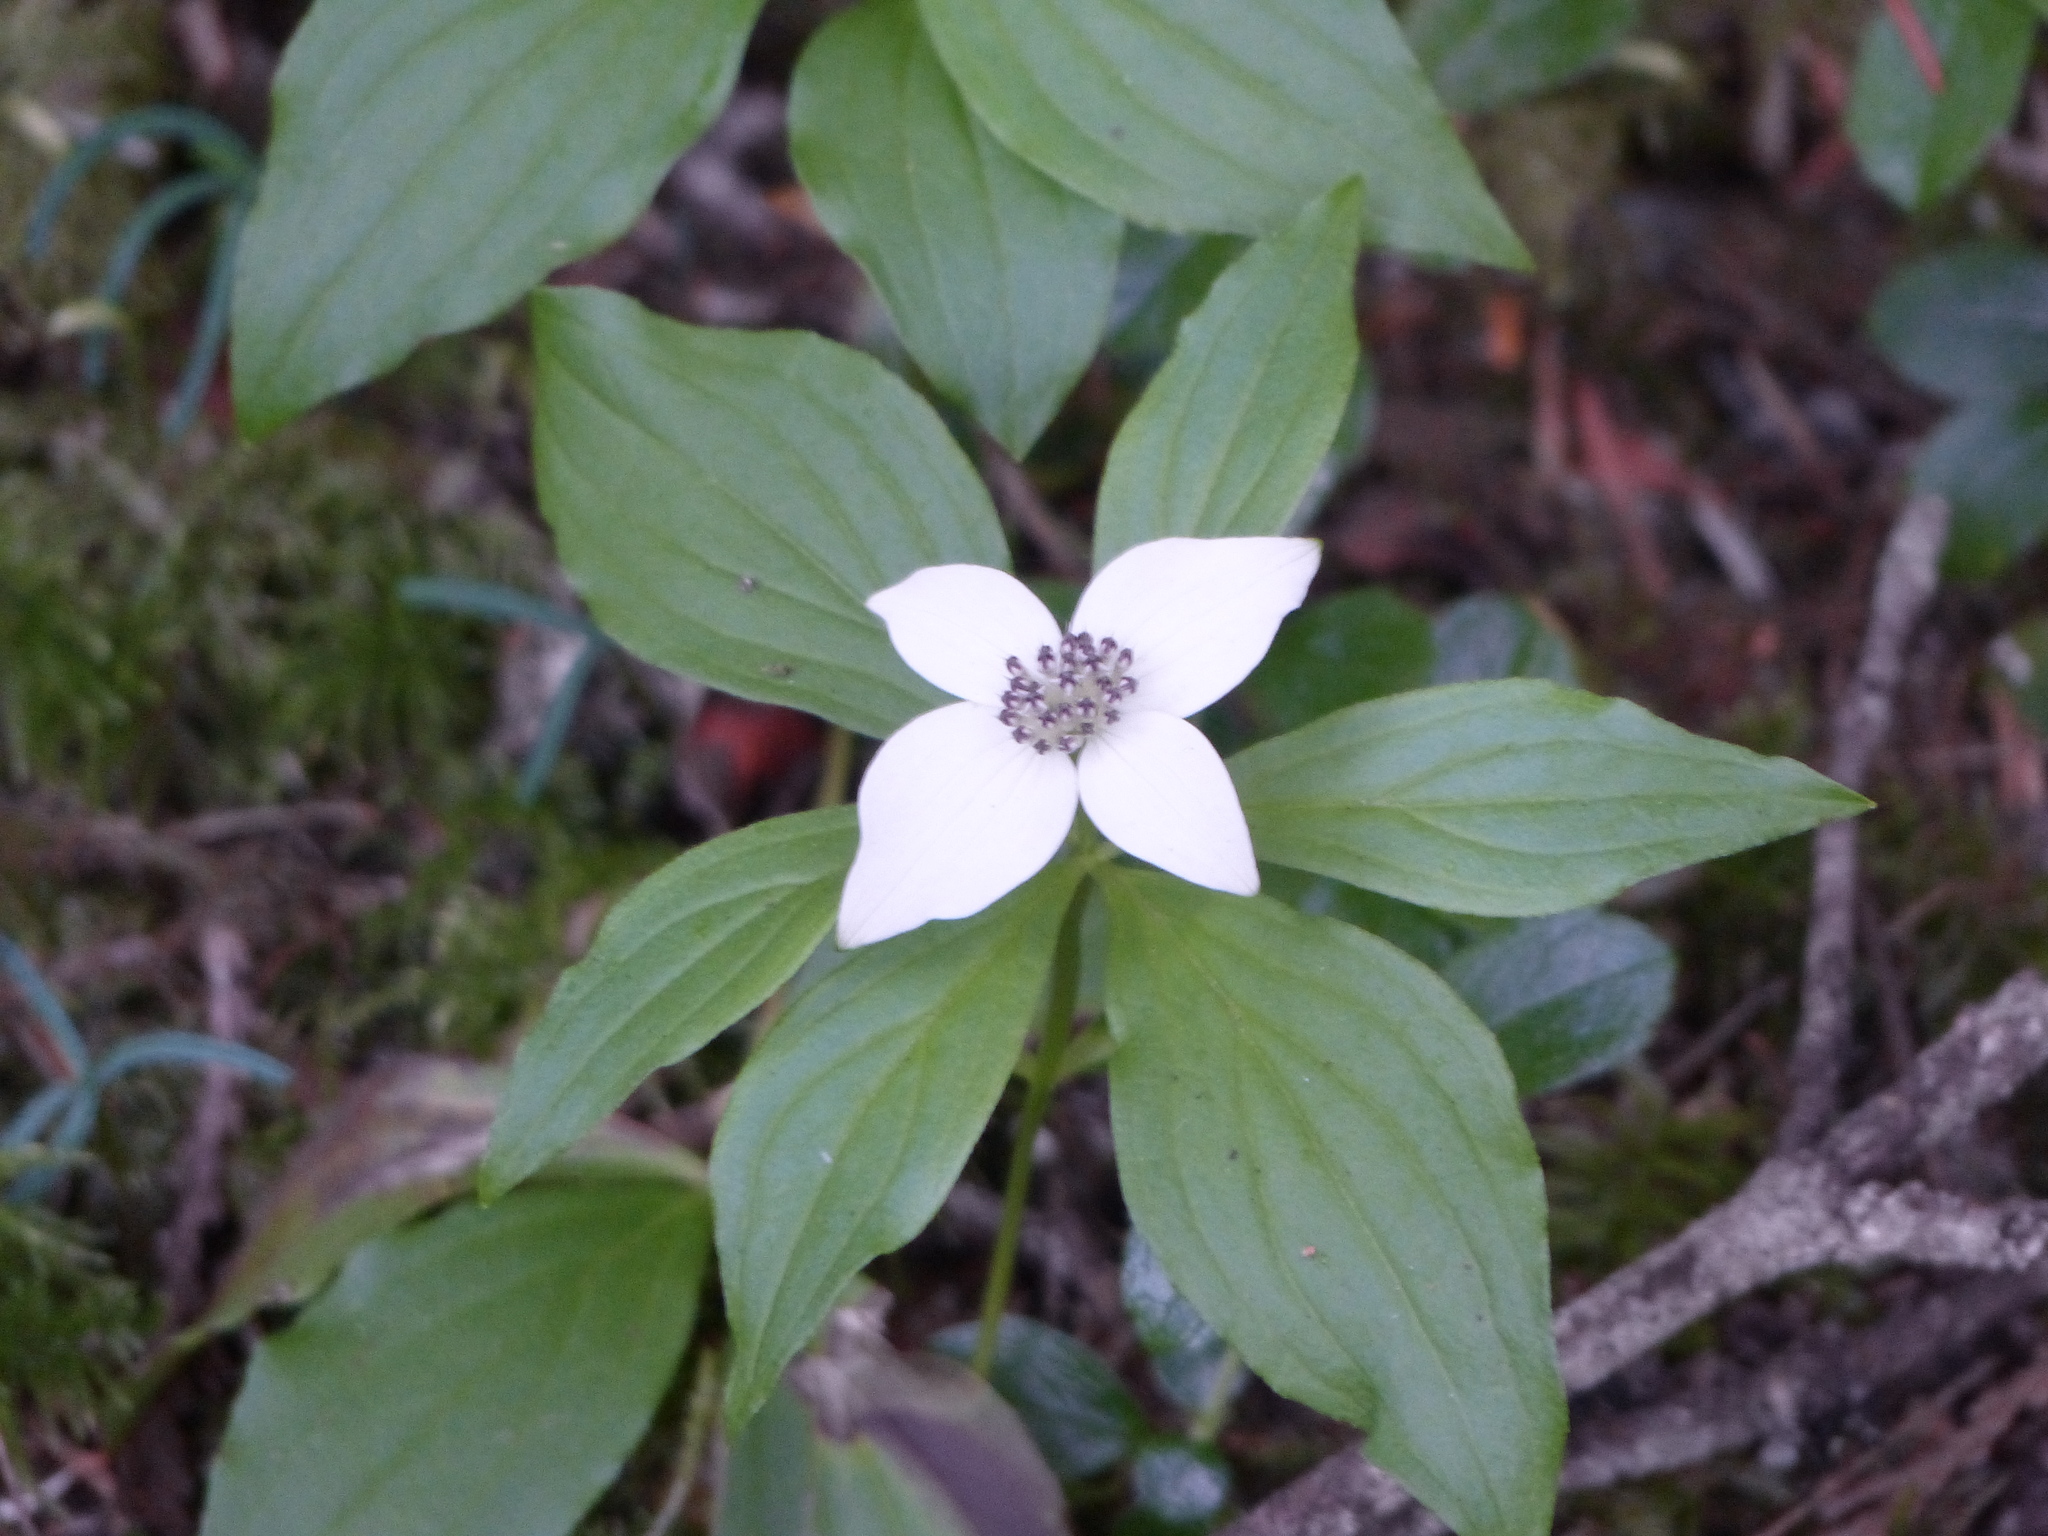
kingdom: Plantae
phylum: Tracheophyta
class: Magnoliopsida
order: Cornales
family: Cornaceae
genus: Cornus
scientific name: Cornus unalaschkensis
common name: Alaska bunchberry
